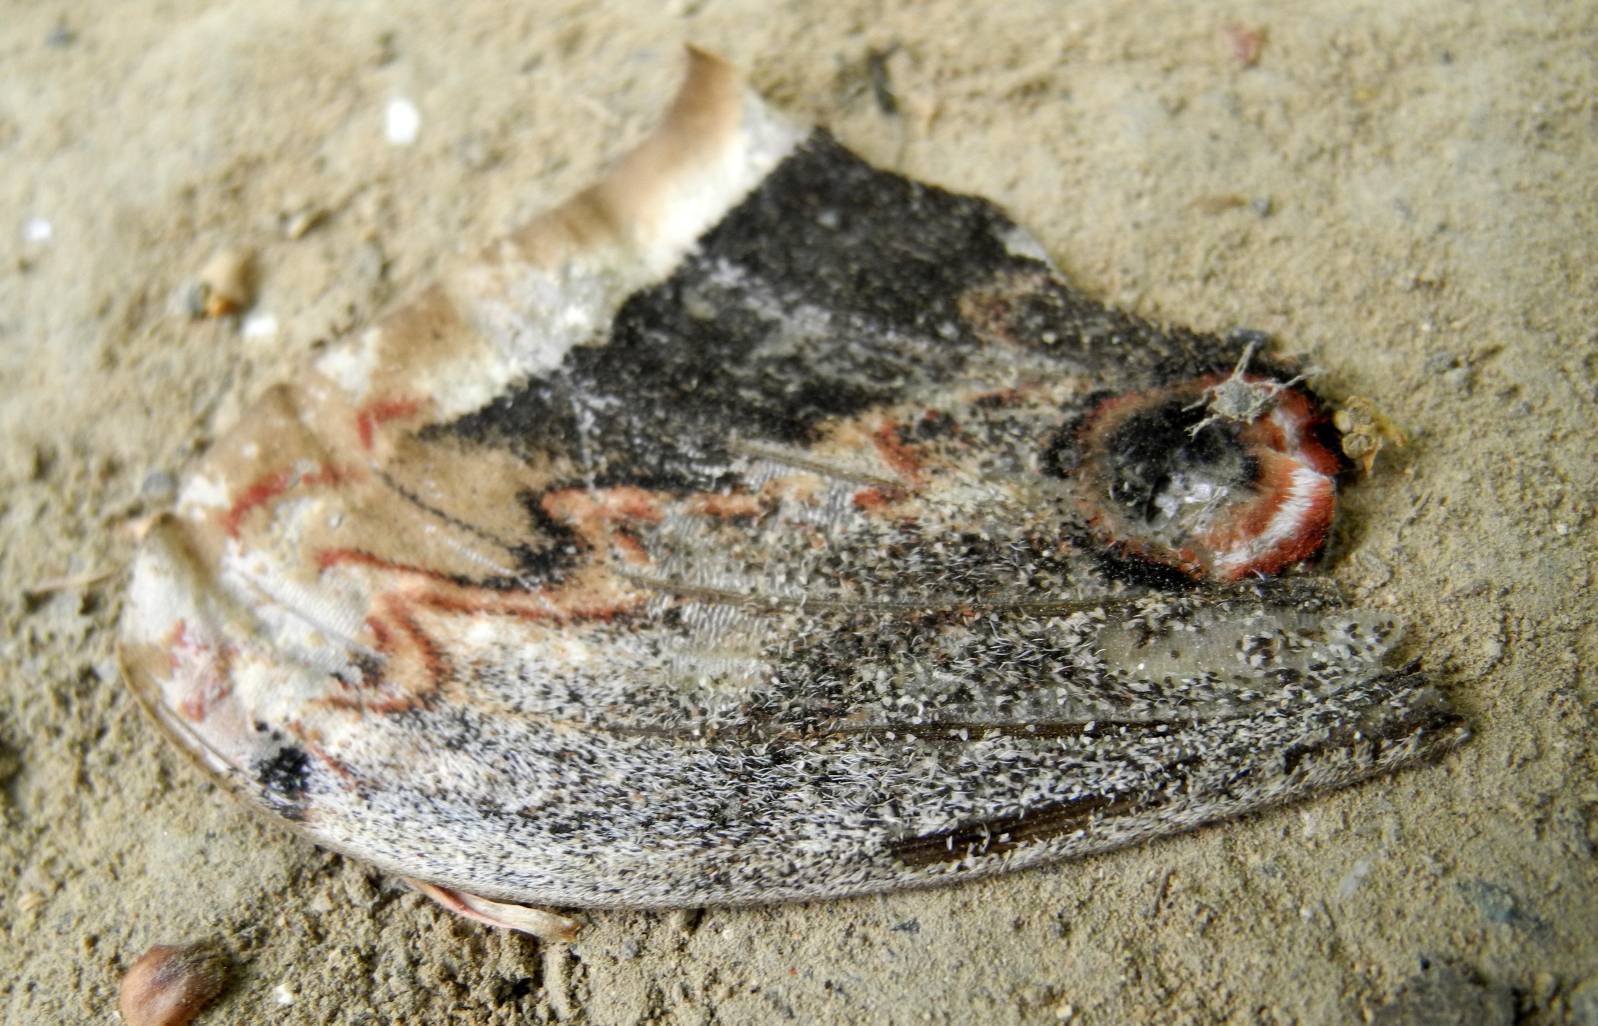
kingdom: Animalia
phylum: Arthropoda
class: Insecta
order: Lepidoptera
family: Saturniidae
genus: Saturnia
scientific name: Saturnia pyri
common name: Great peacock moth
